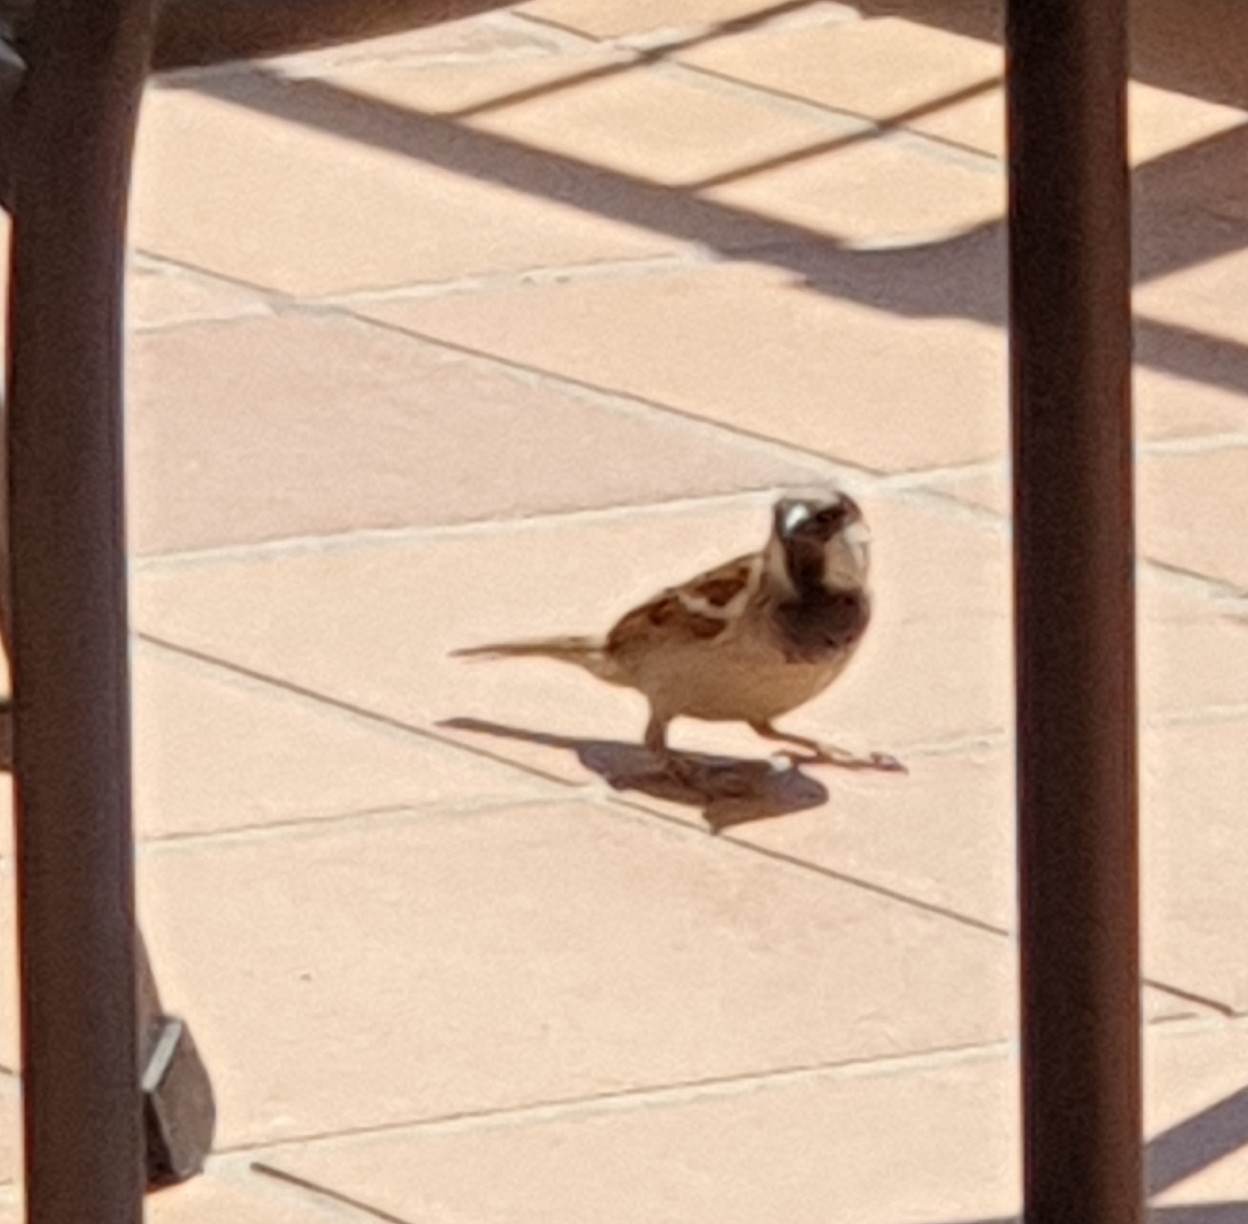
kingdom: Animalia
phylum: Chordata
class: Aves
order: Passeriformes
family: Passeridae
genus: Passer
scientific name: Passer domesticus
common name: House sparrow
